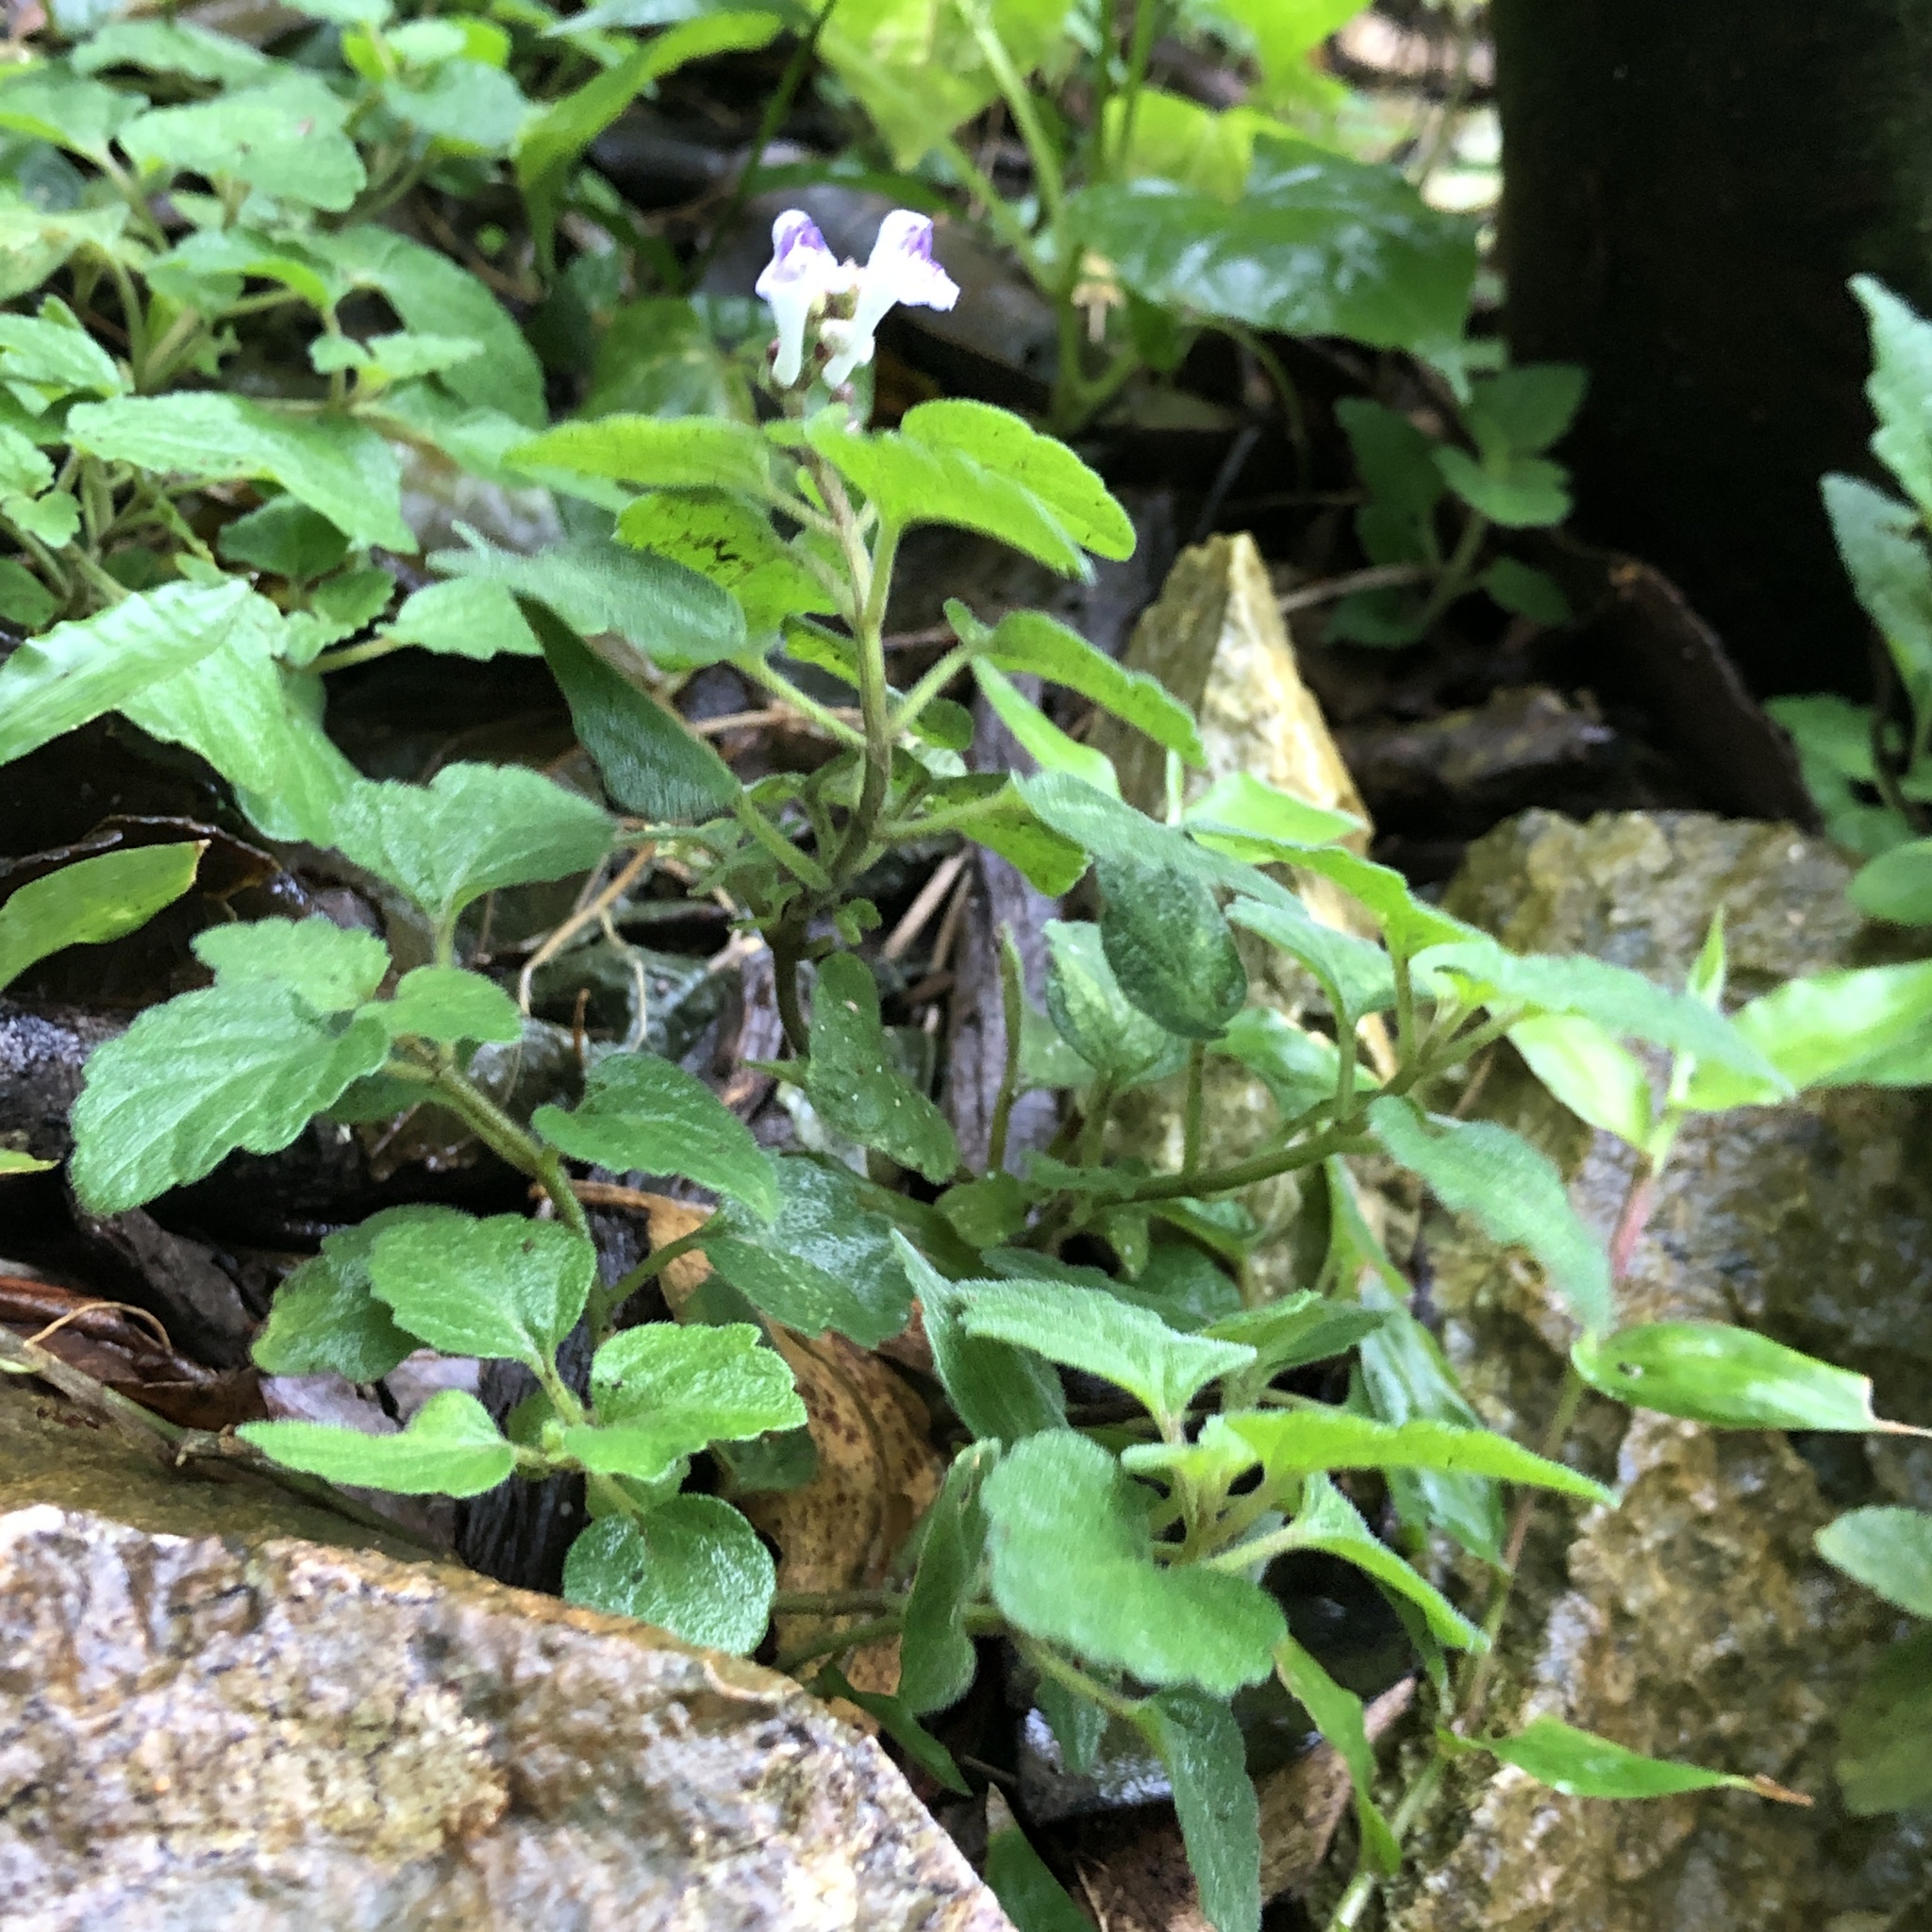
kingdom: Plantae
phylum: Tracheophyta
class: Magnoliopsida
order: Lamiales
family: Lamiaceae
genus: Scutellaria
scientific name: Scutellaria rubropunctata
